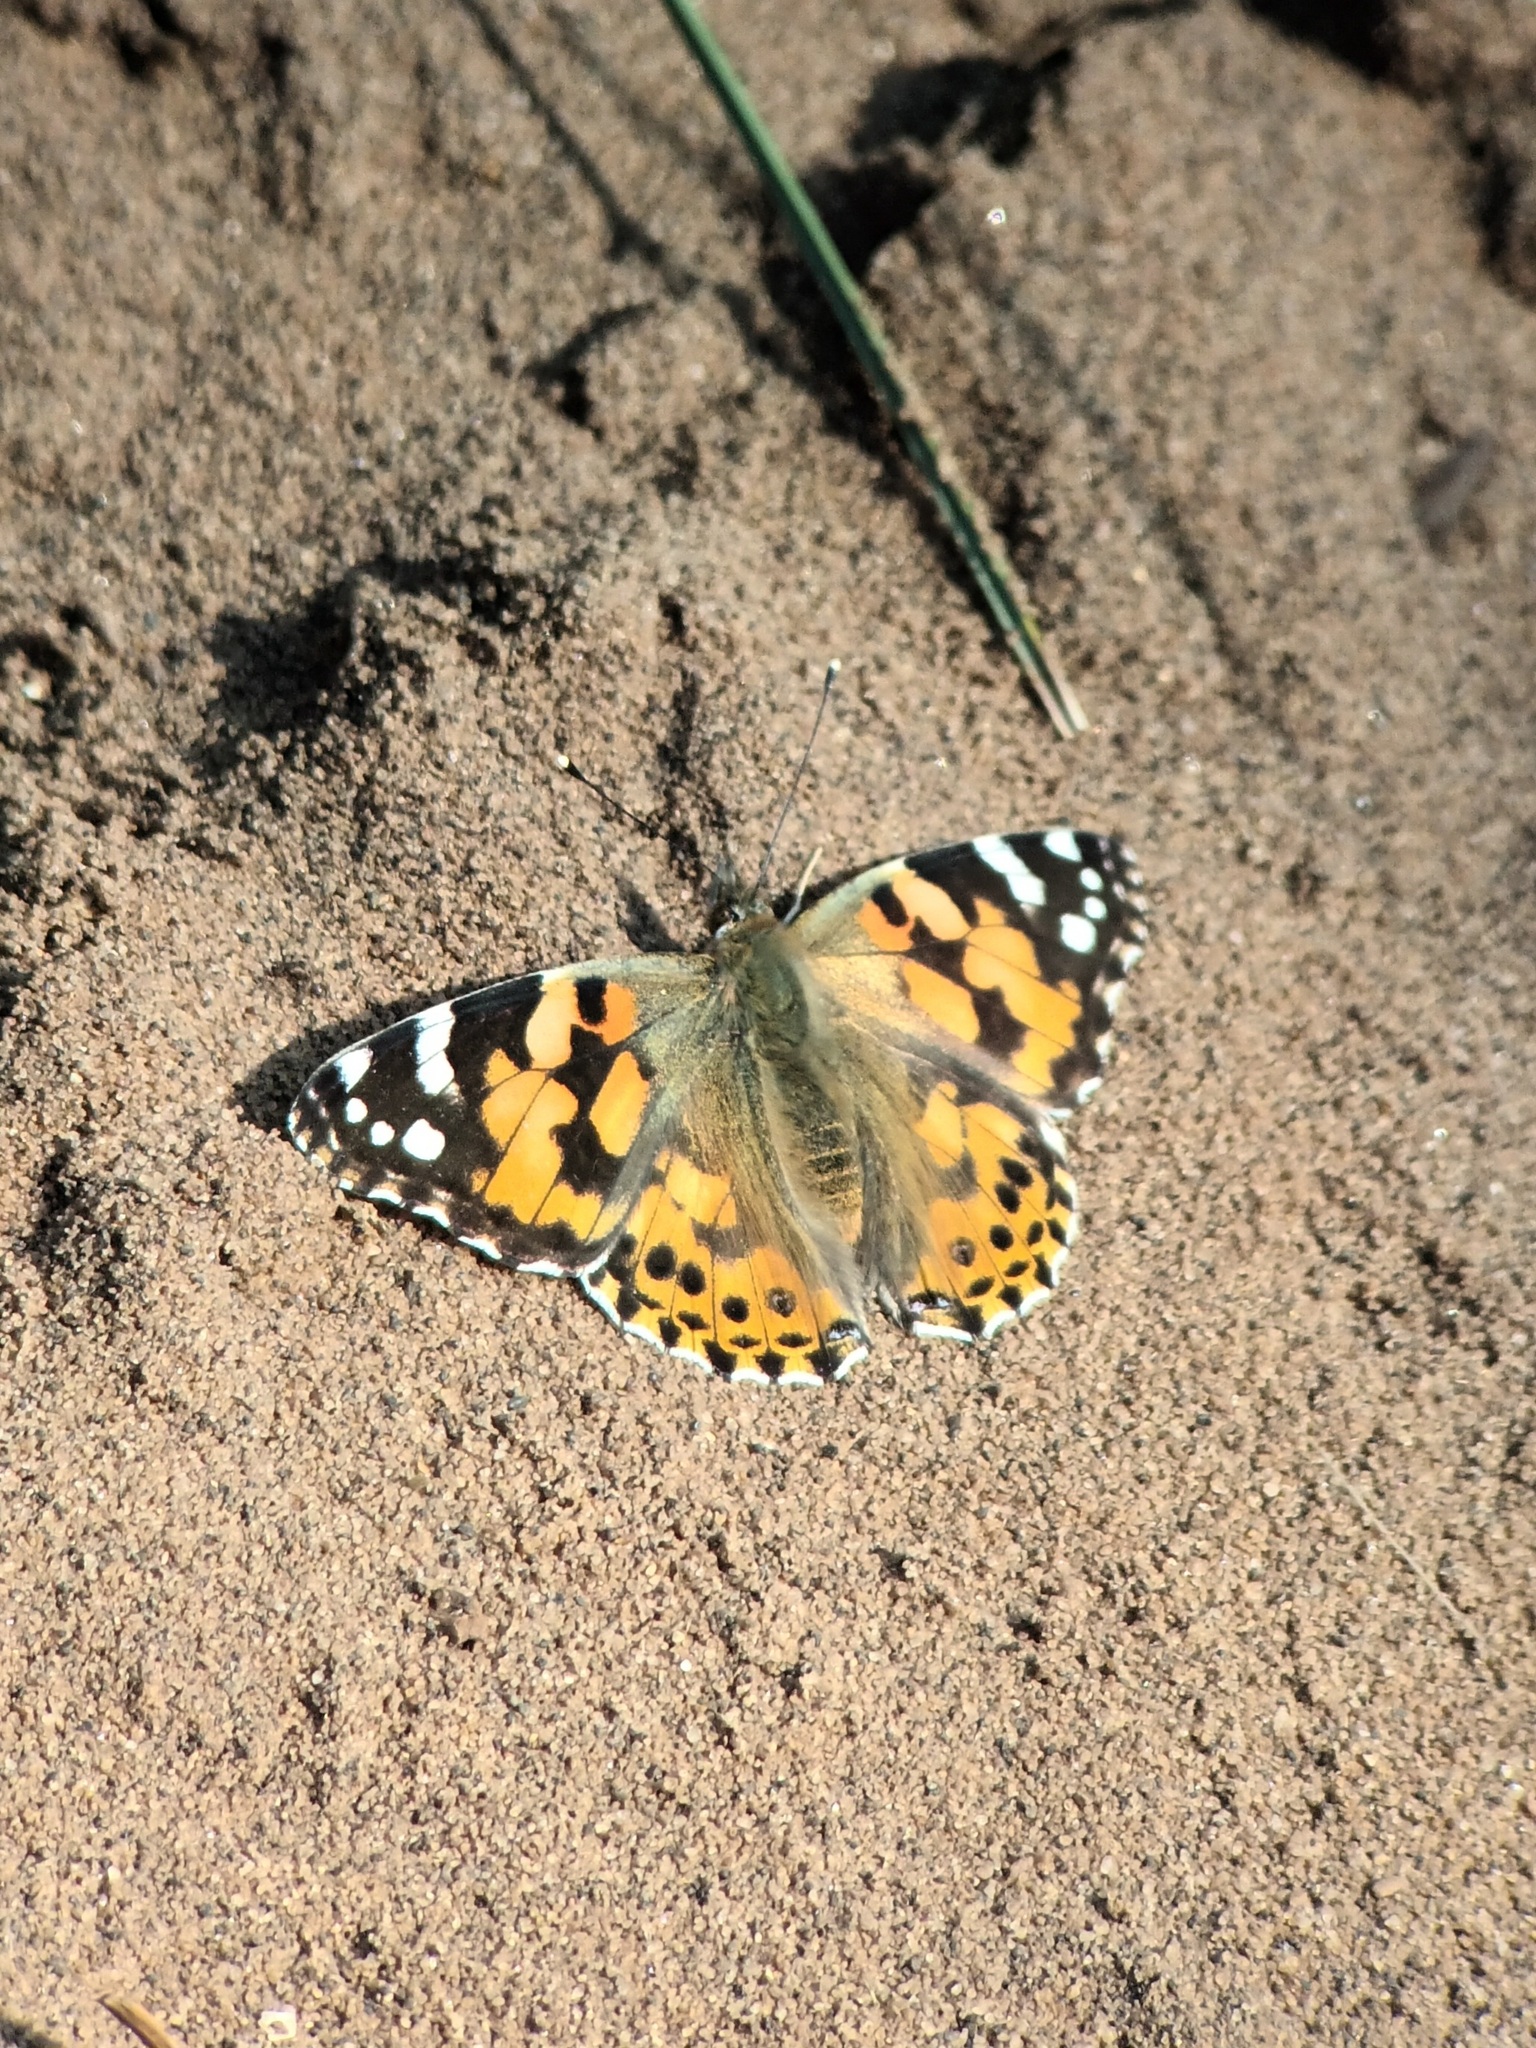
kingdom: Animalia
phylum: Arthropoda
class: Insecta
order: Lepidoptera
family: Nymphalidae
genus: Vanessa
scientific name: Vanessa cardui
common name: Painted lady
